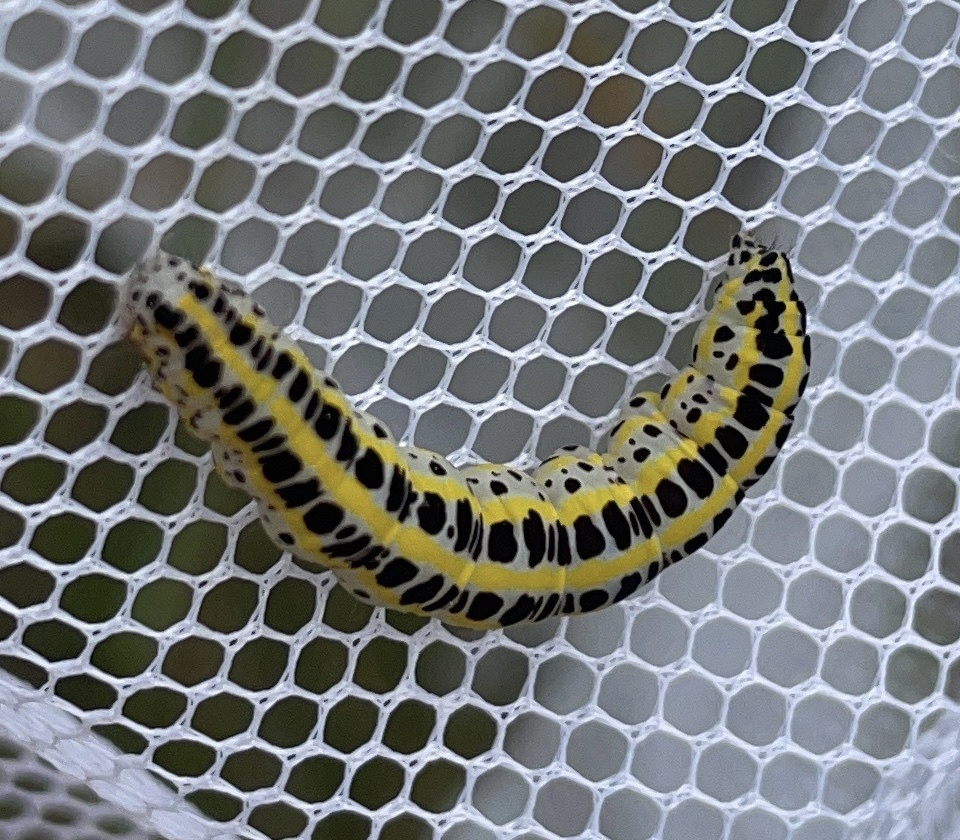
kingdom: Animalia
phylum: Arthropoda
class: Insecta
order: Lepidoptera
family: Noctuidae
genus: Calophasia
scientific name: Calophasia lunula
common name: Toadflax brocade
